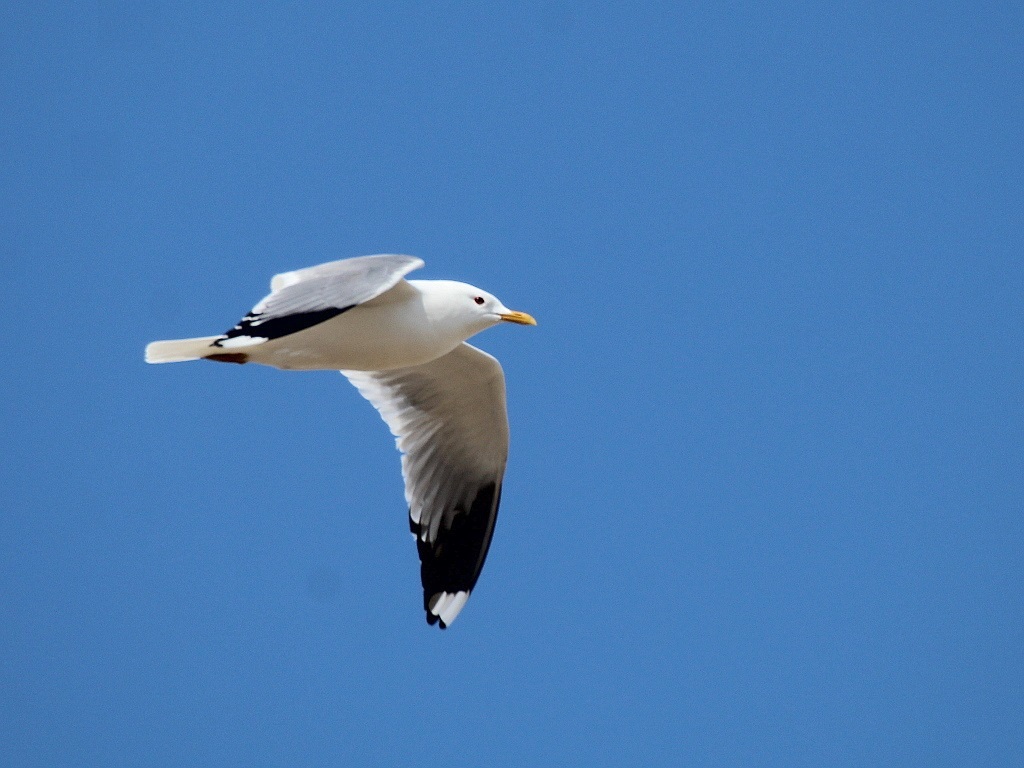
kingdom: Animalia
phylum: Chordata
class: Aves
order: Charadriiformes
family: Laridae
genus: Larus
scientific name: Larus canus
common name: Mew gull
